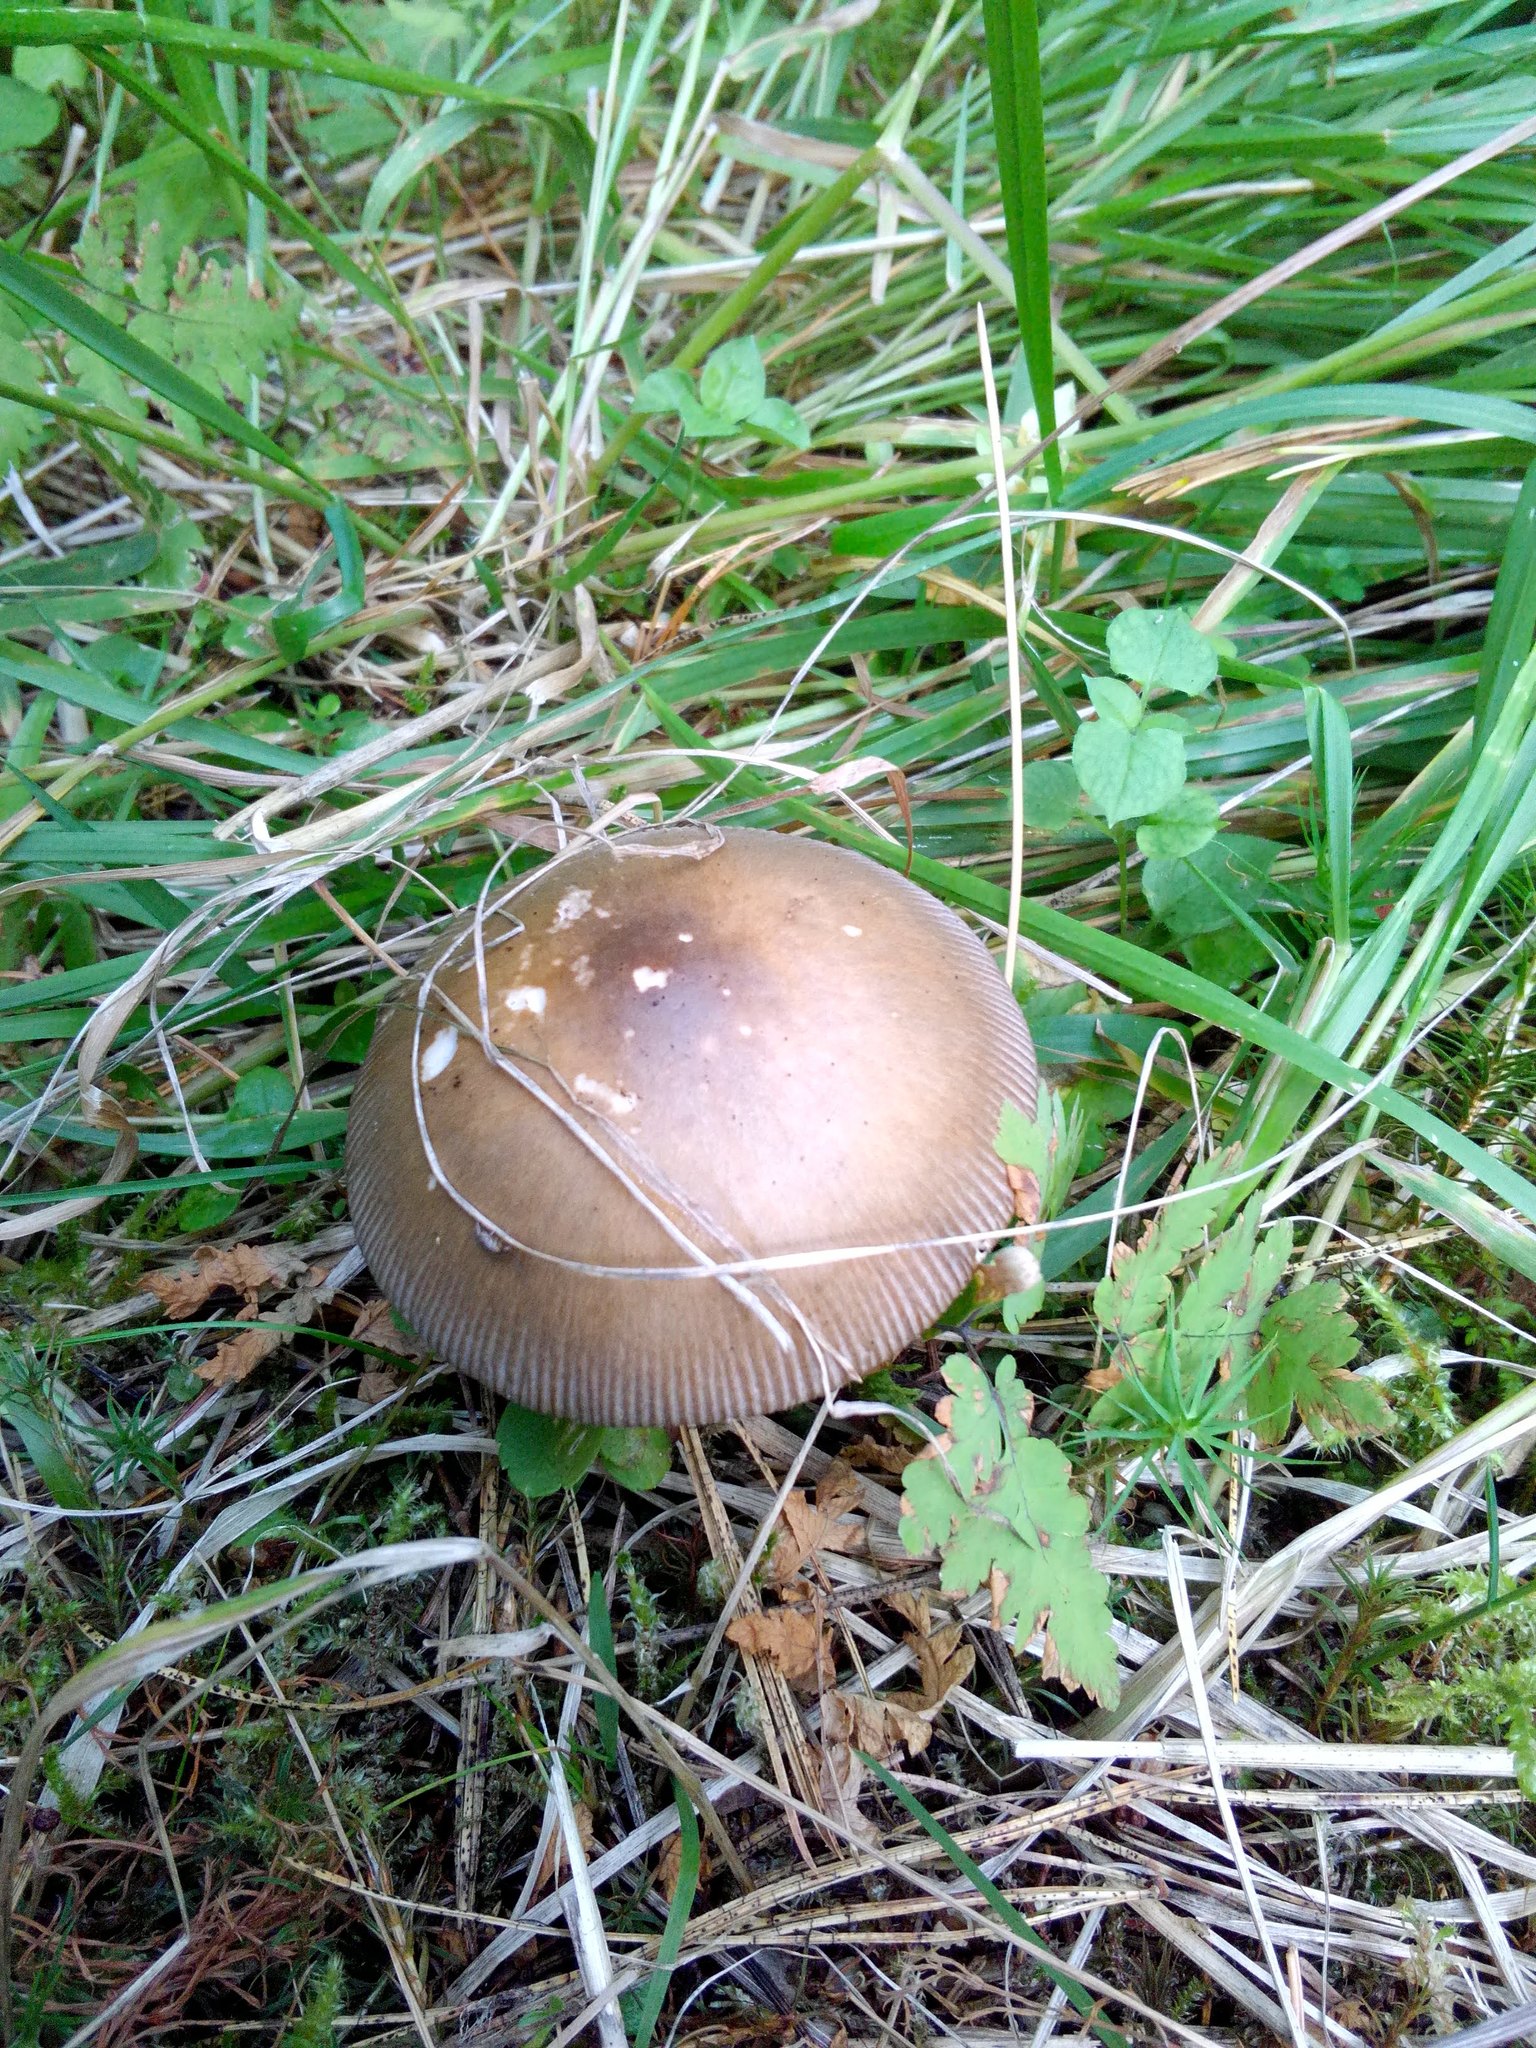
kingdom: Fungi
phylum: Basidiomycota
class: Agaricomycetes
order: Agaricales
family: Amanitaceae
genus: Amanita
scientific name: Amanita fulva
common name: Tawny grisette
